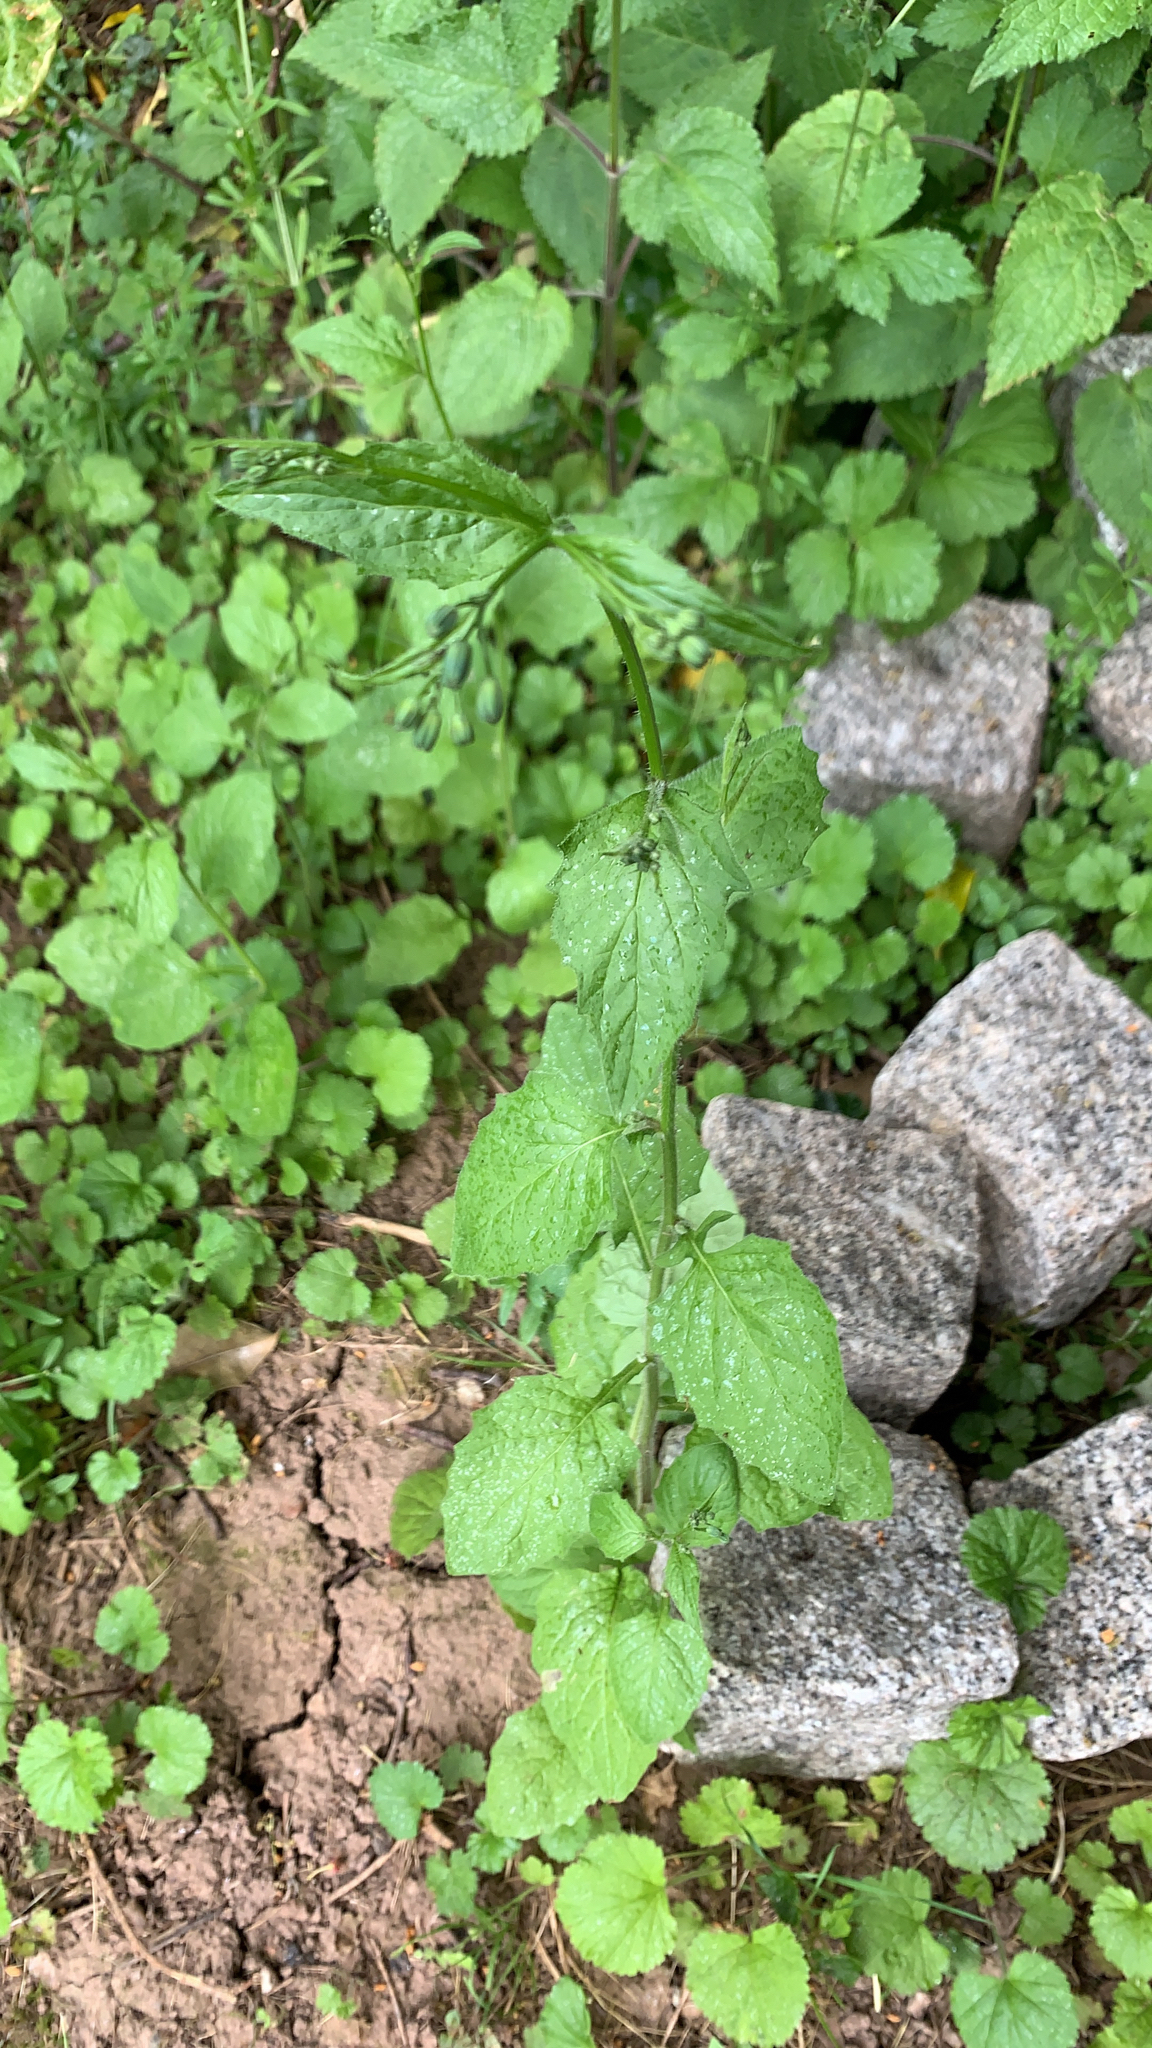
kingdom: Plantae
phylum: Tracheophyta
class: Magnoliopsida
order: Asterales
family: Asteraceae
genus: Lapsana
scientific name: Lapsana communis
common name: Nipplewort
